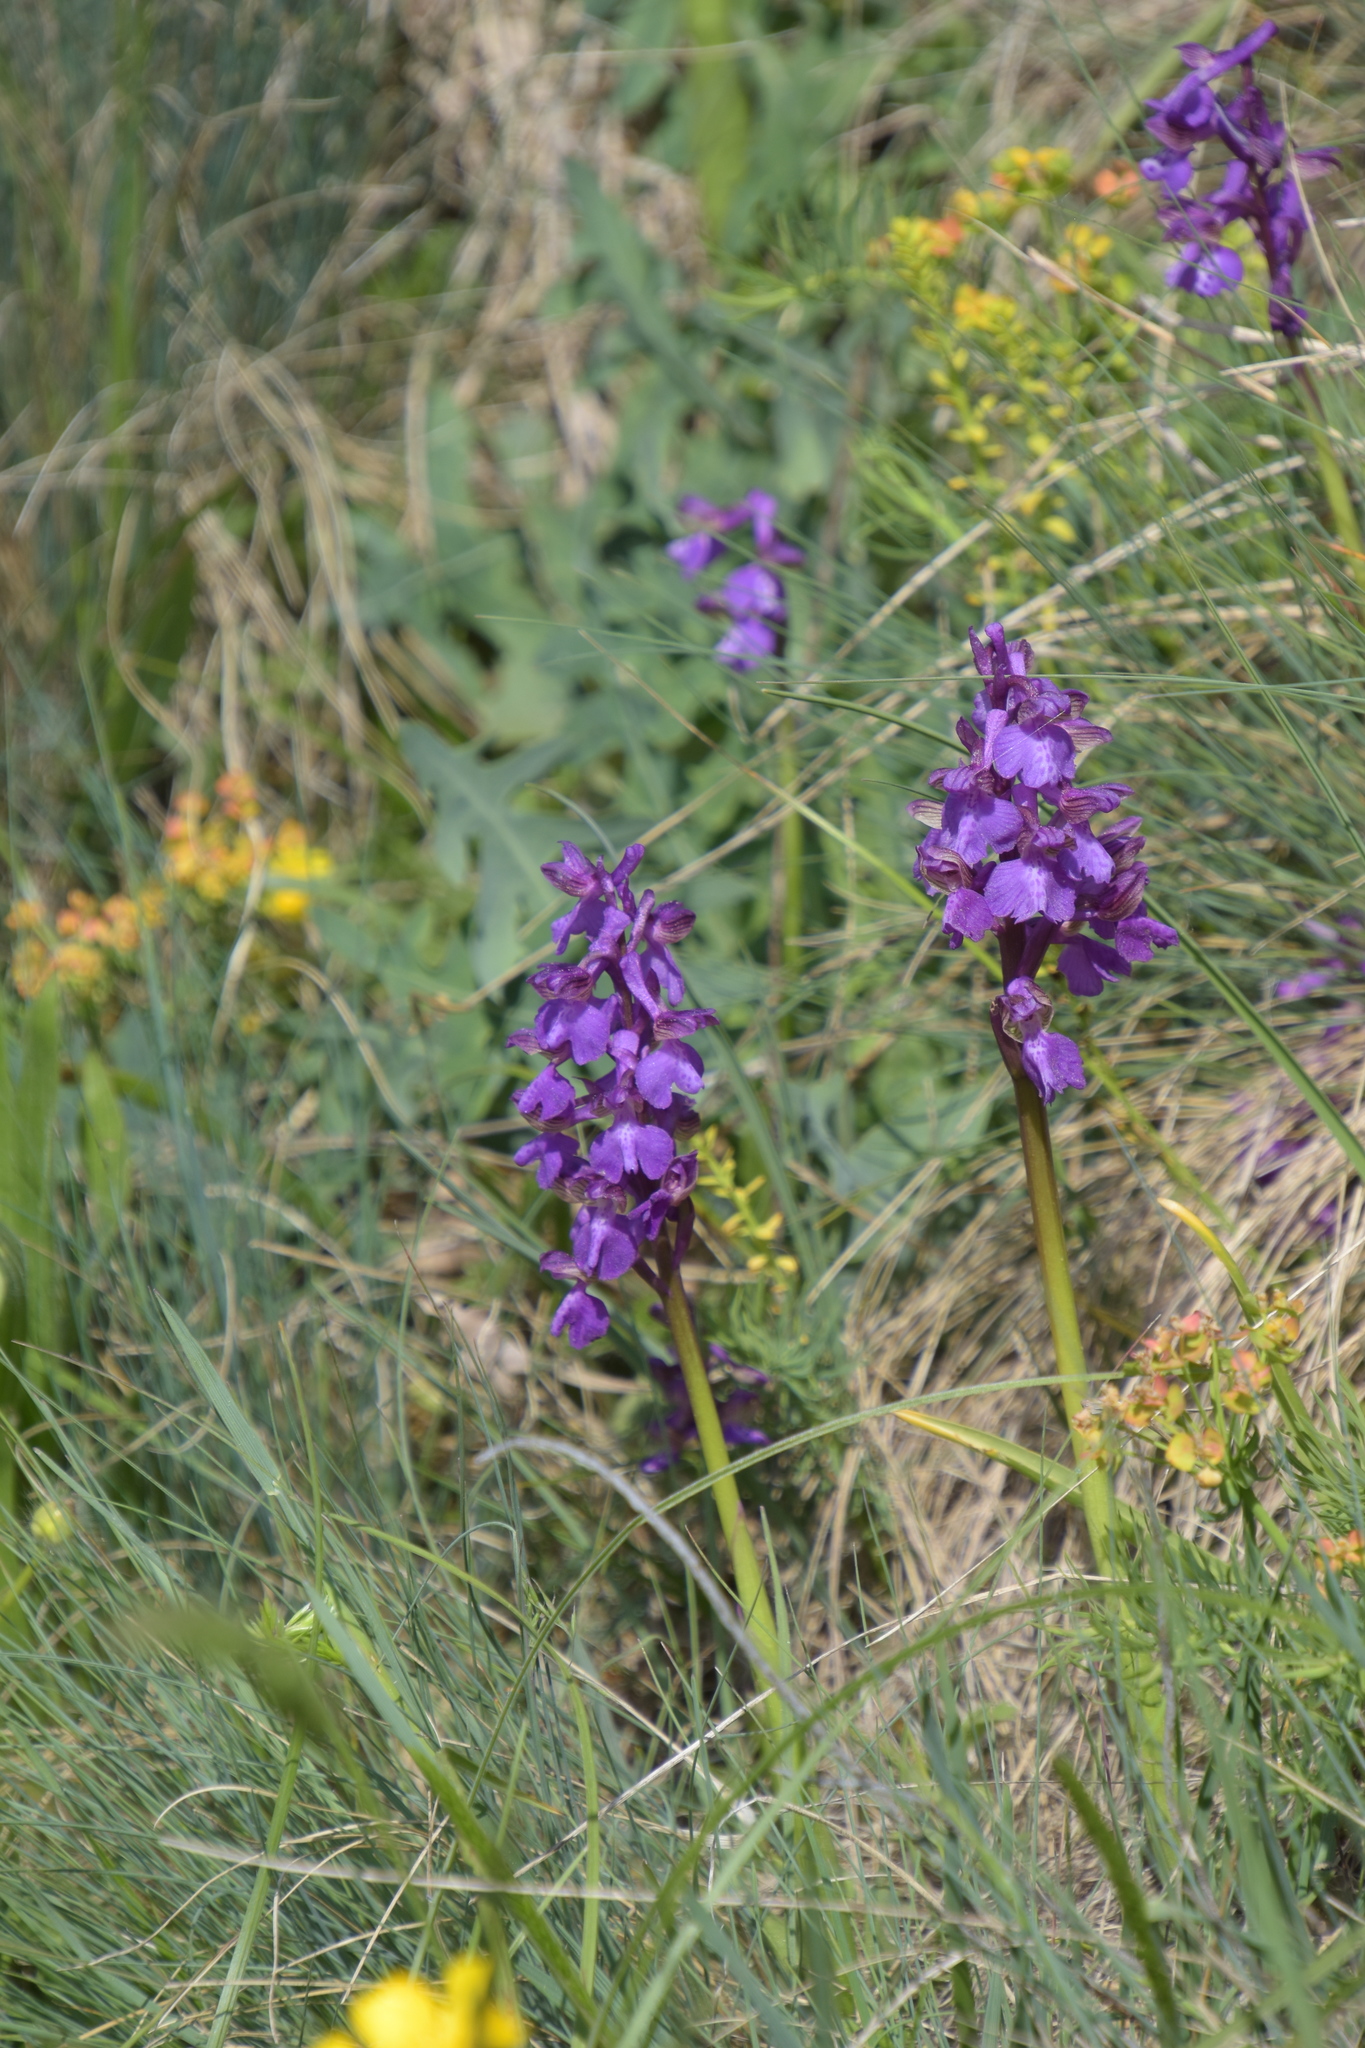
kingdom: Plantae
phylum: Tracheophyta
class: Liliopsida
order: Asparagales
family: Orchidaceae
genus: Anacamptis
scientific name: Anacamptis morio
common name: Green-winged orchid
